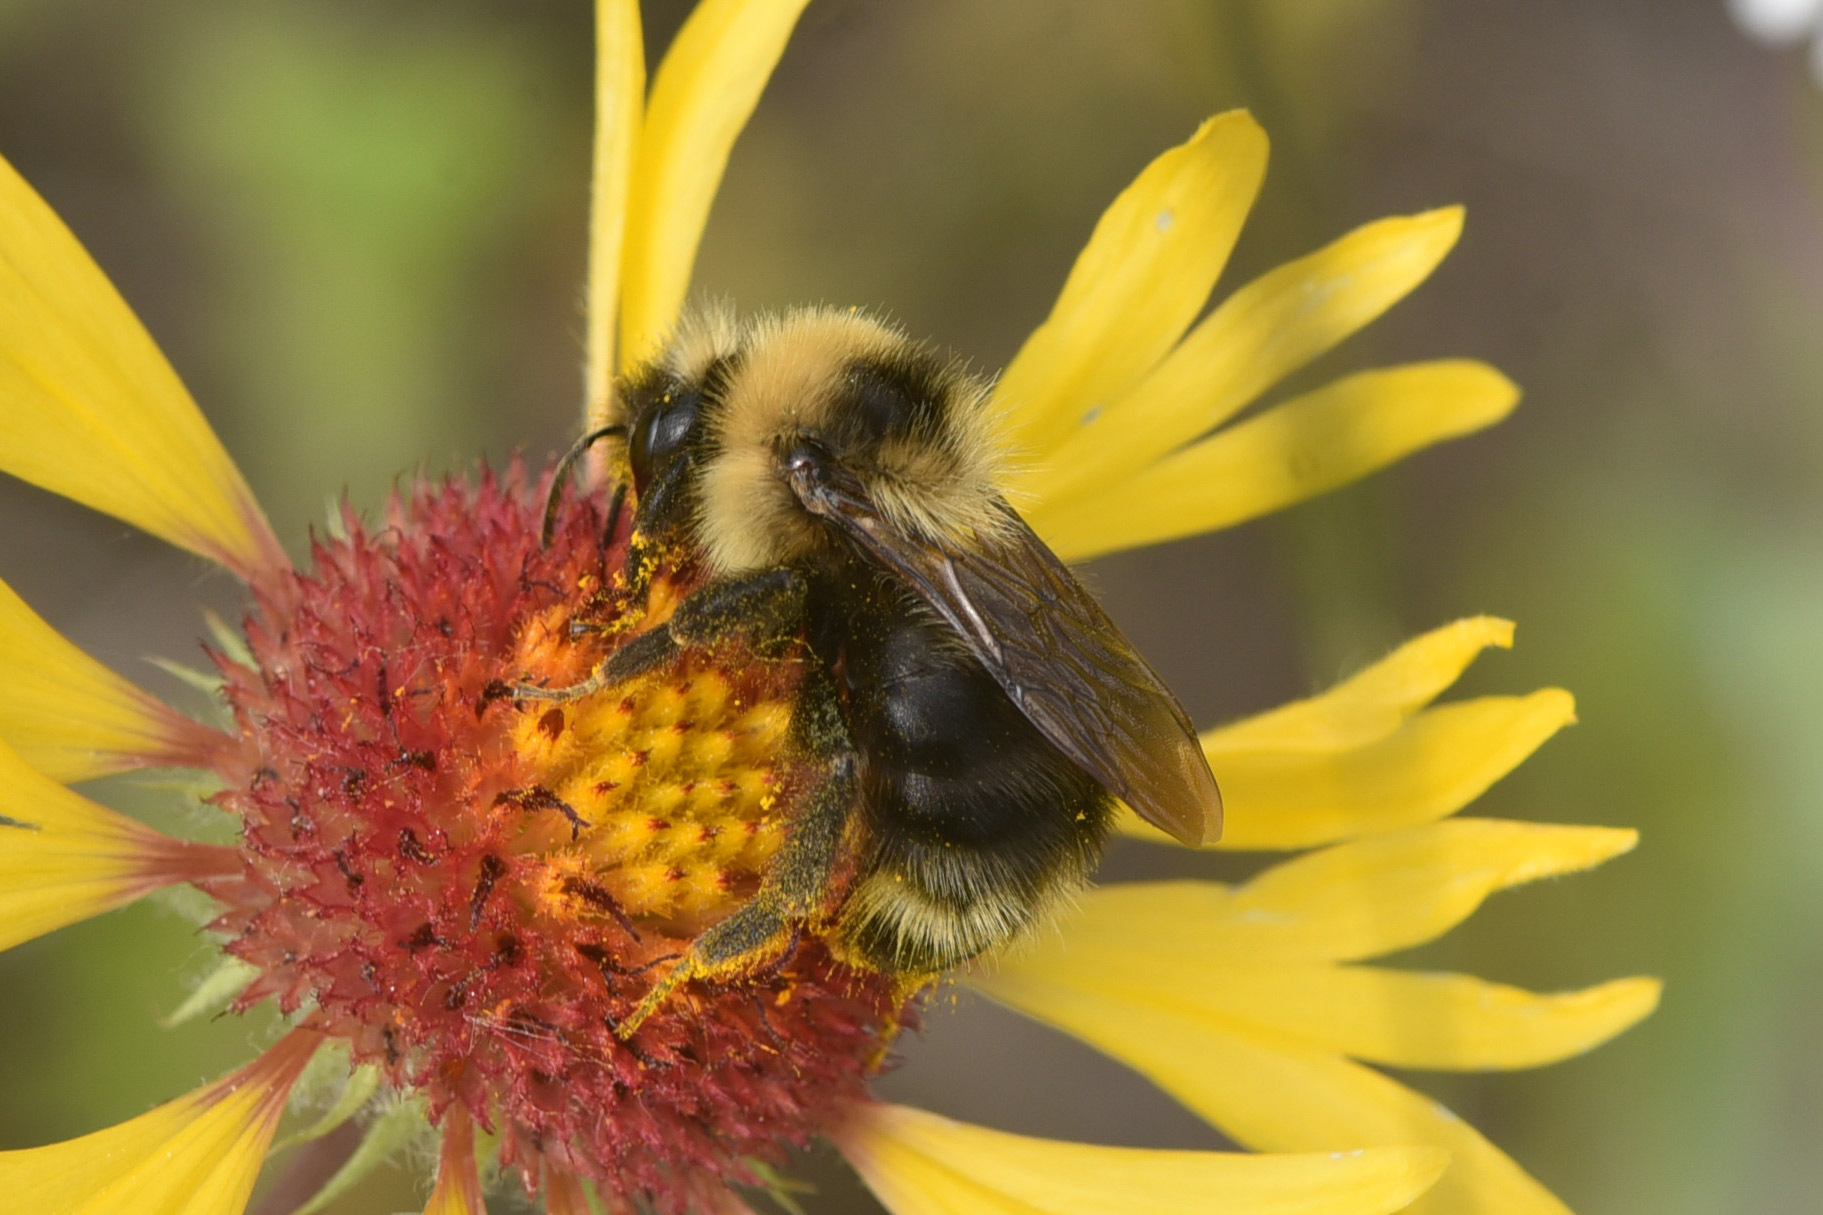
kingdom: Animalia
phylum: Arthropoda
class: Insecta
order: Hymenoptera
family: Apidae
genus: Bombus
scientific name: Bombus flavidus
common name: Fernald cuckoo bumble bee
